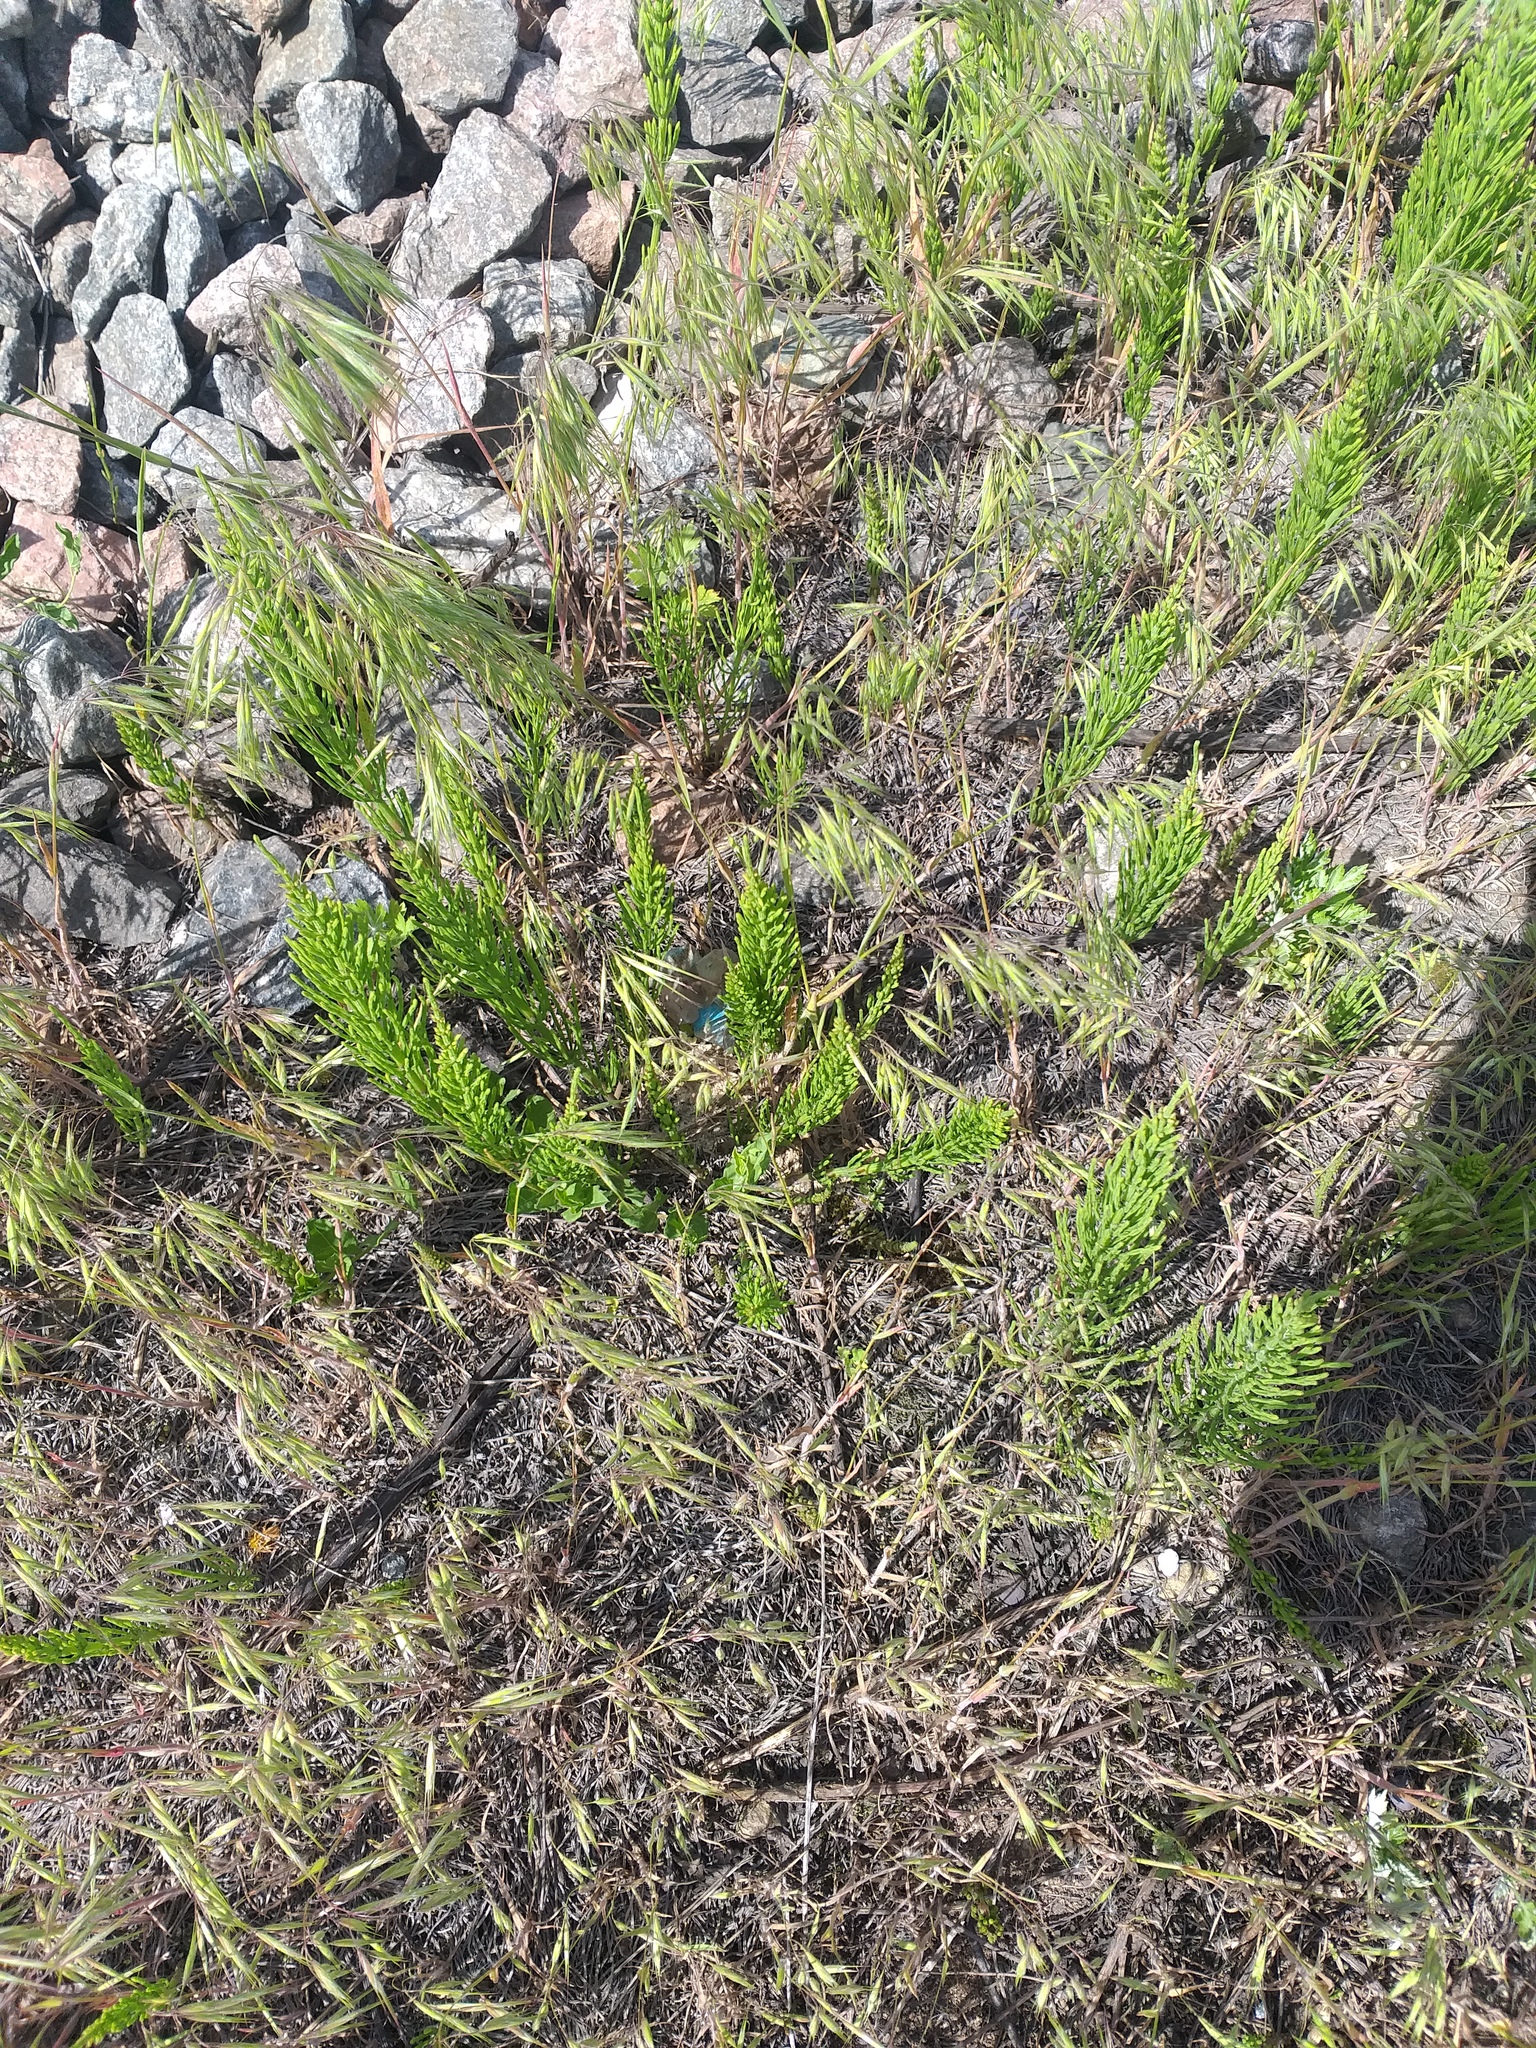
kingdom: Plantae
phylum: Tracheophyta
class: Polypodiopsida
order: Equisetales
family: Equisetaceae
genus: Equisetum
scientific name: Equisetum arvense
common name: Field horsetail
